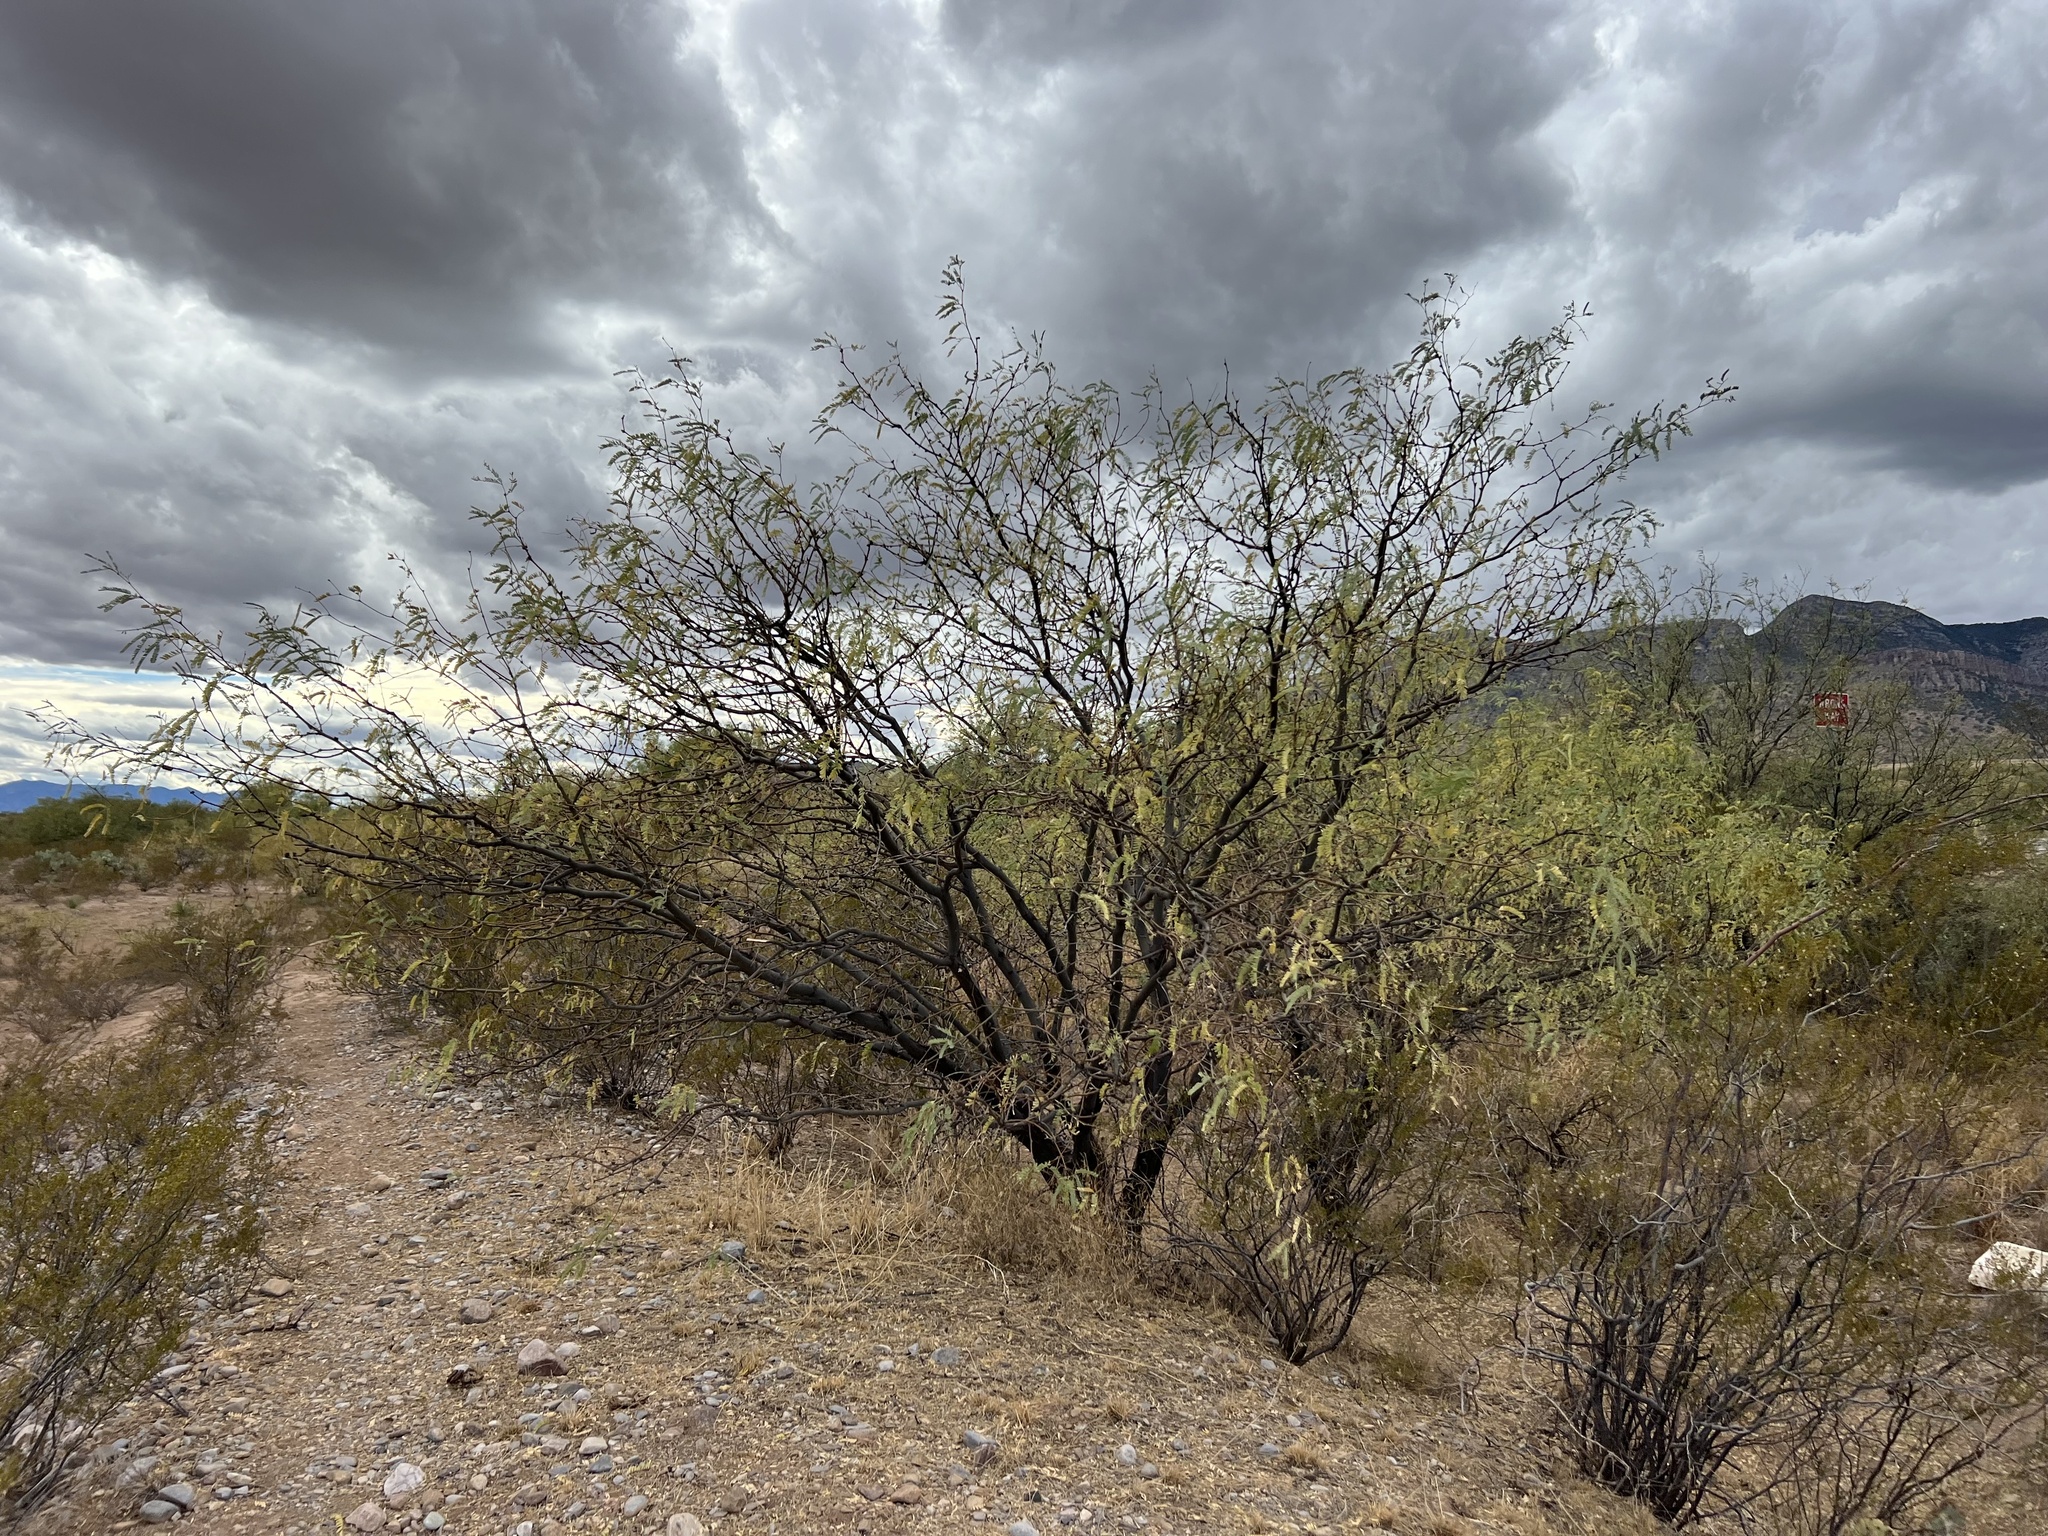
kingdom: Plantae
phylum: Tracheophyta
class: Magnoliopsida
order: Fabales
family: Fabaceae
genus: Prosopis
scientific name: Prosopis velutina
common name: Velvet mesquite
